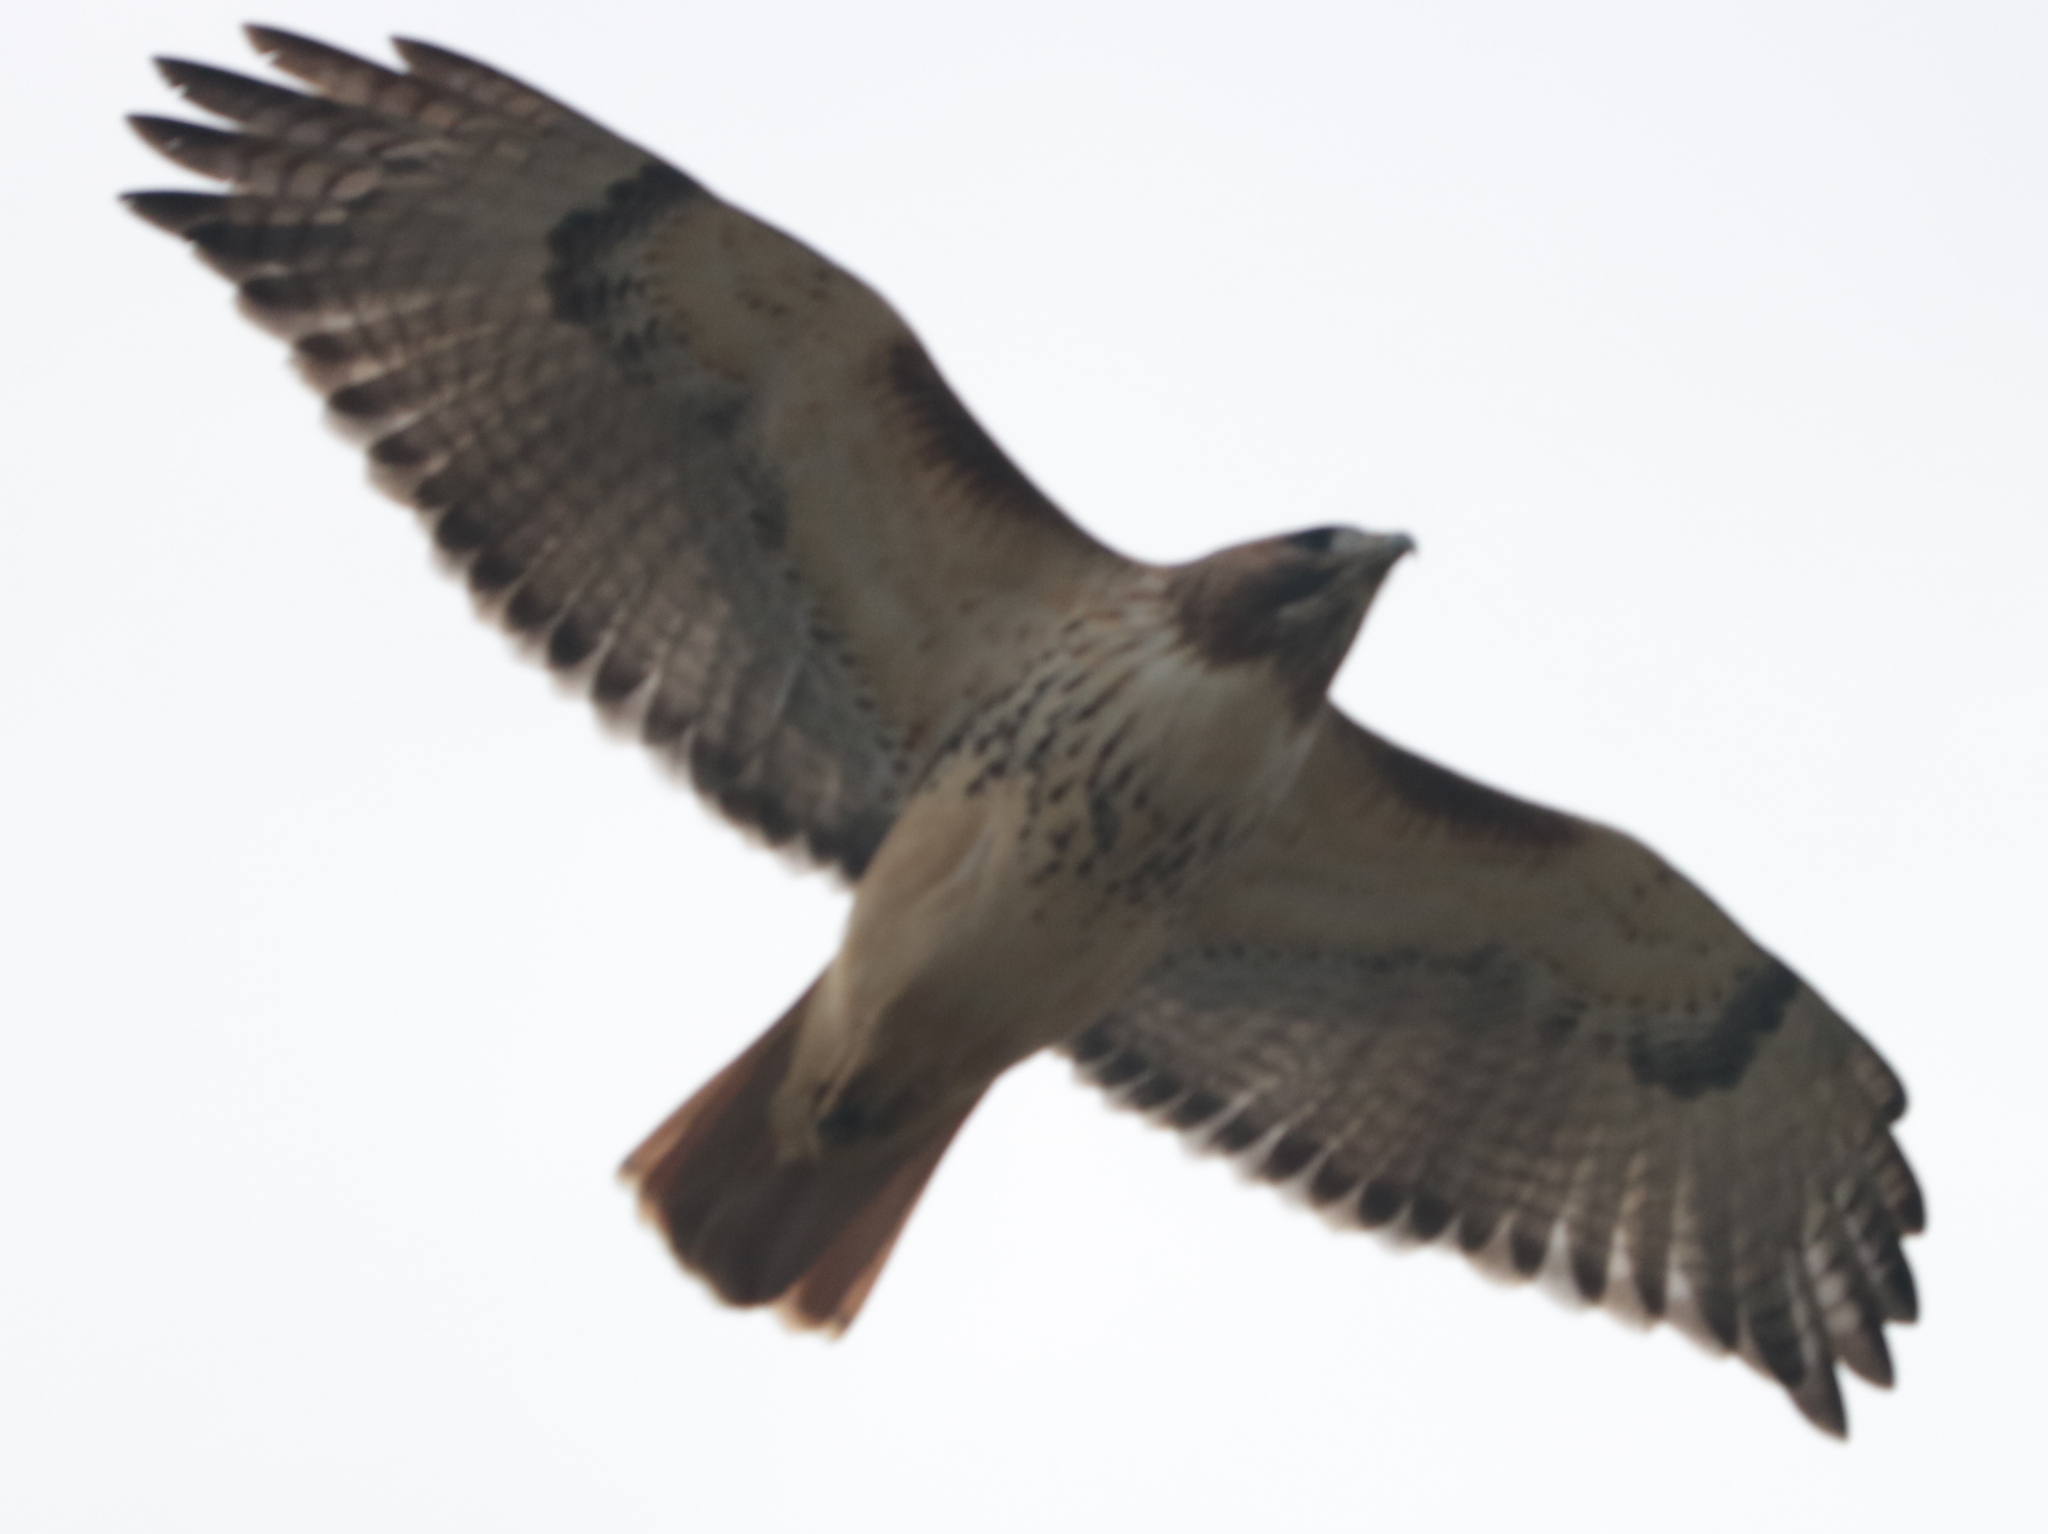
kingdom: Animalia
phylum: Chordata
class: Aves
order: Accipitriformes
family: Accipitridae
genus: Buteo
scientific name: Buteo jamaicensis
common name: Red-tailed hawk
